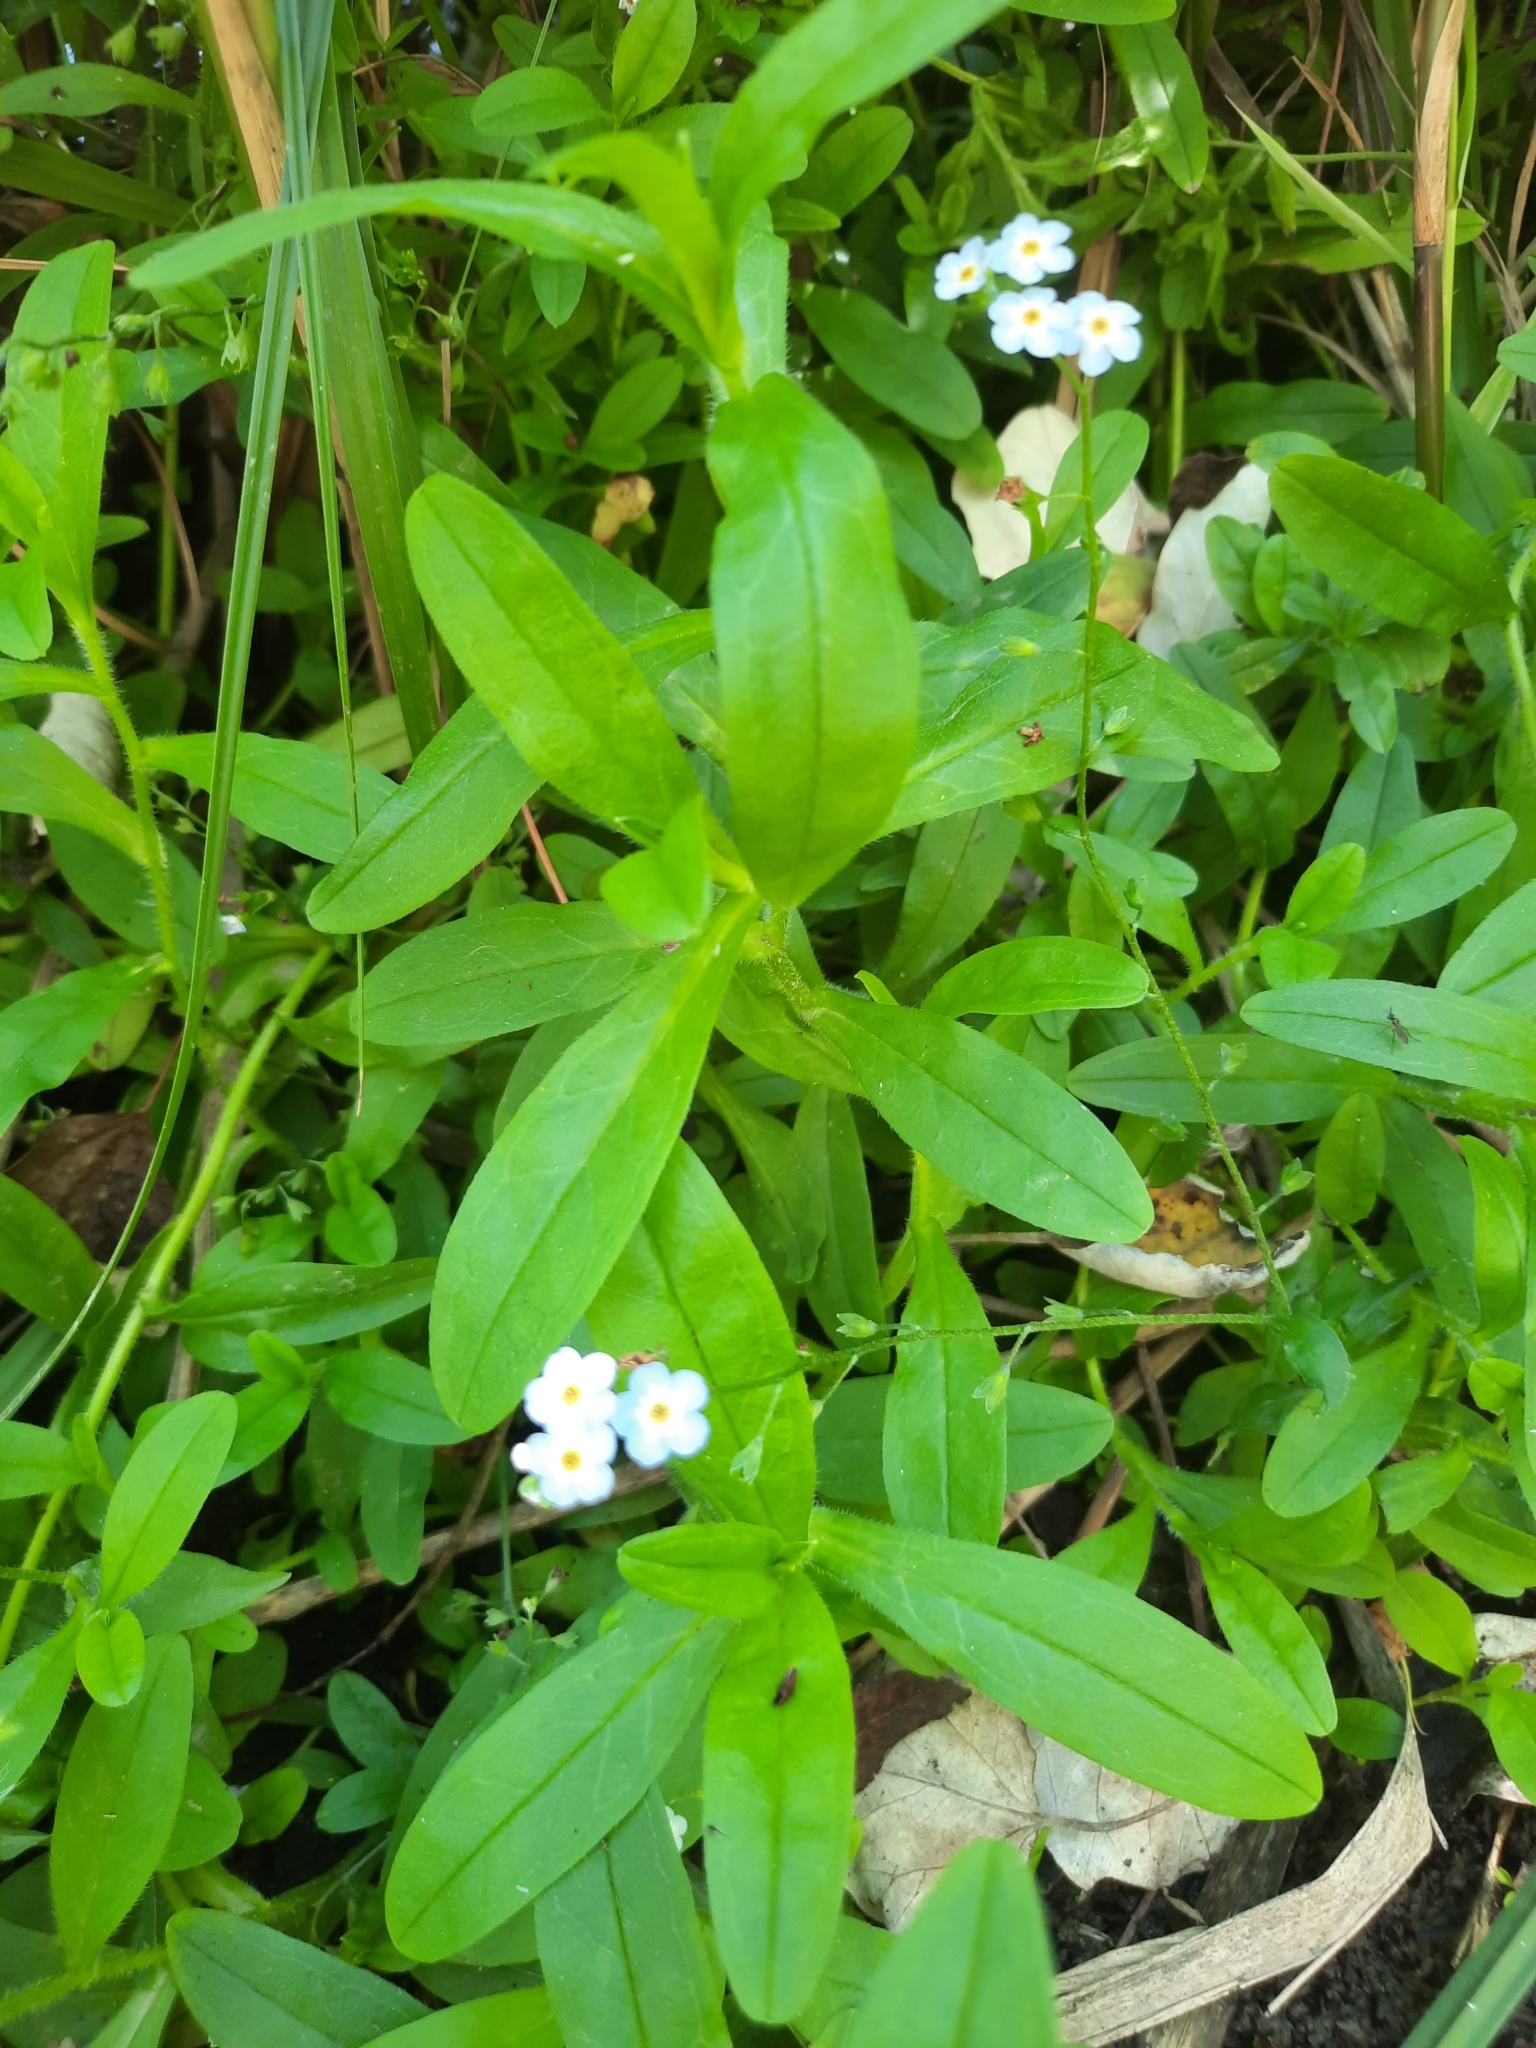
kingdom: Plantae
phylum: Tracheophyta
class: Magnoliopsida
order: Boraginales
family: Boraginaceae
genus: Myosotis
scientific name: Myosotis scorpioides
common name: Water forget-me-not
